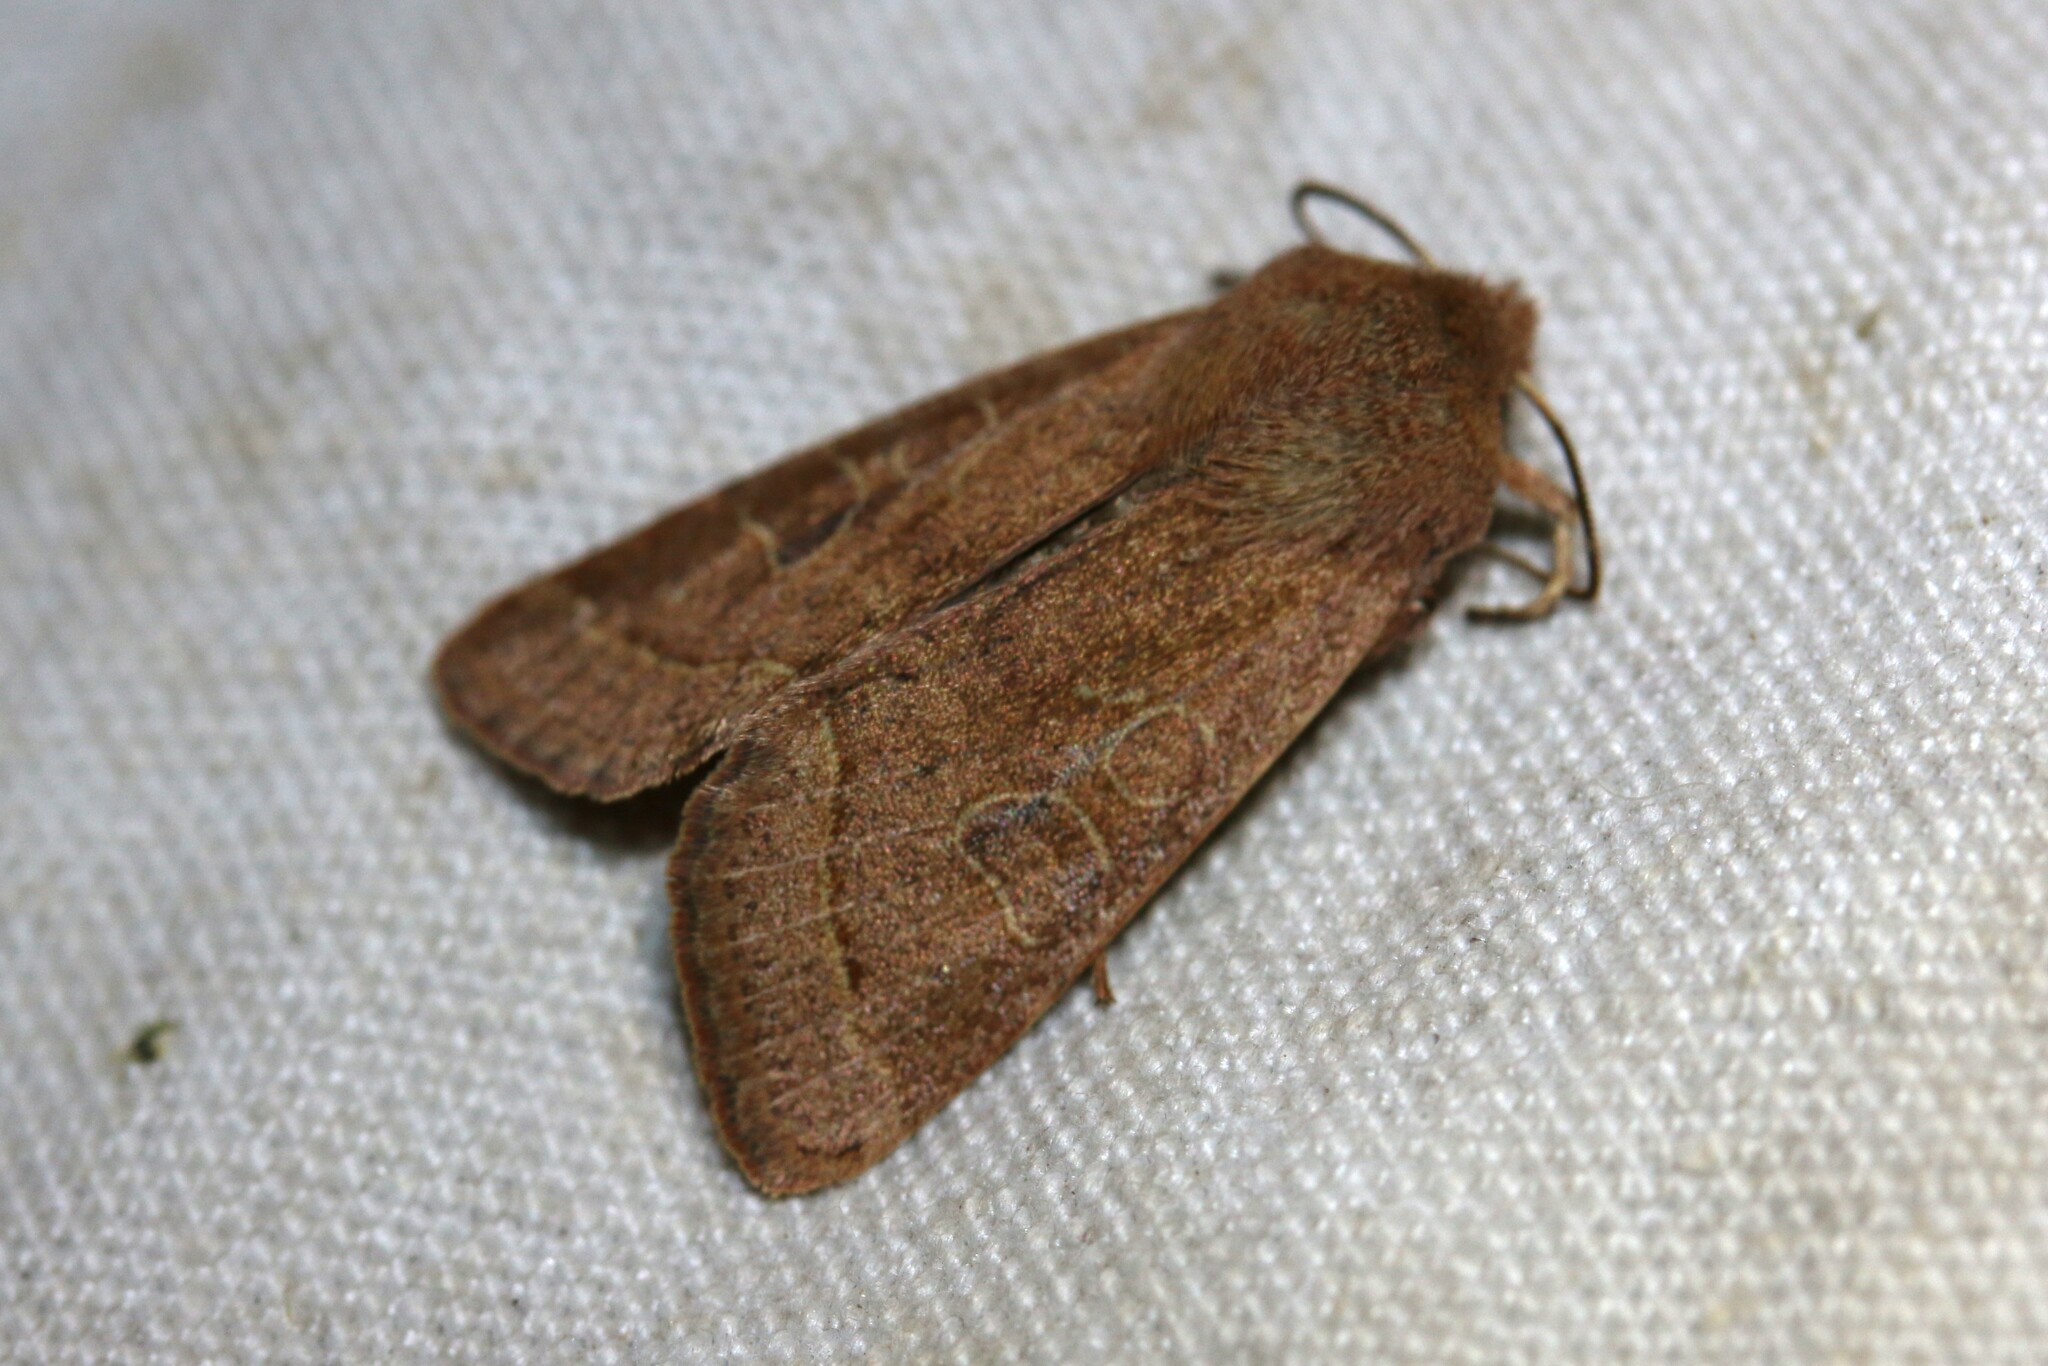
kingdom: Animalia
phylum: Arthropoda
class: Insecta
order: Lepidoptera
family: Noctuidae
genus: Orthosia
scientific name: Orthosia cerasi
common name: Common quaker
